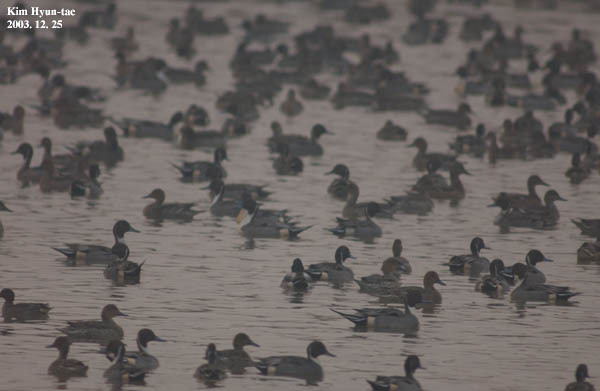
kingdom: Animalia
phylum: Chordata
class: Aves
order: Anseriformes
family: Anatidae
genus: Anas
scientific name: Anas acuta
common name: Northern pintail
